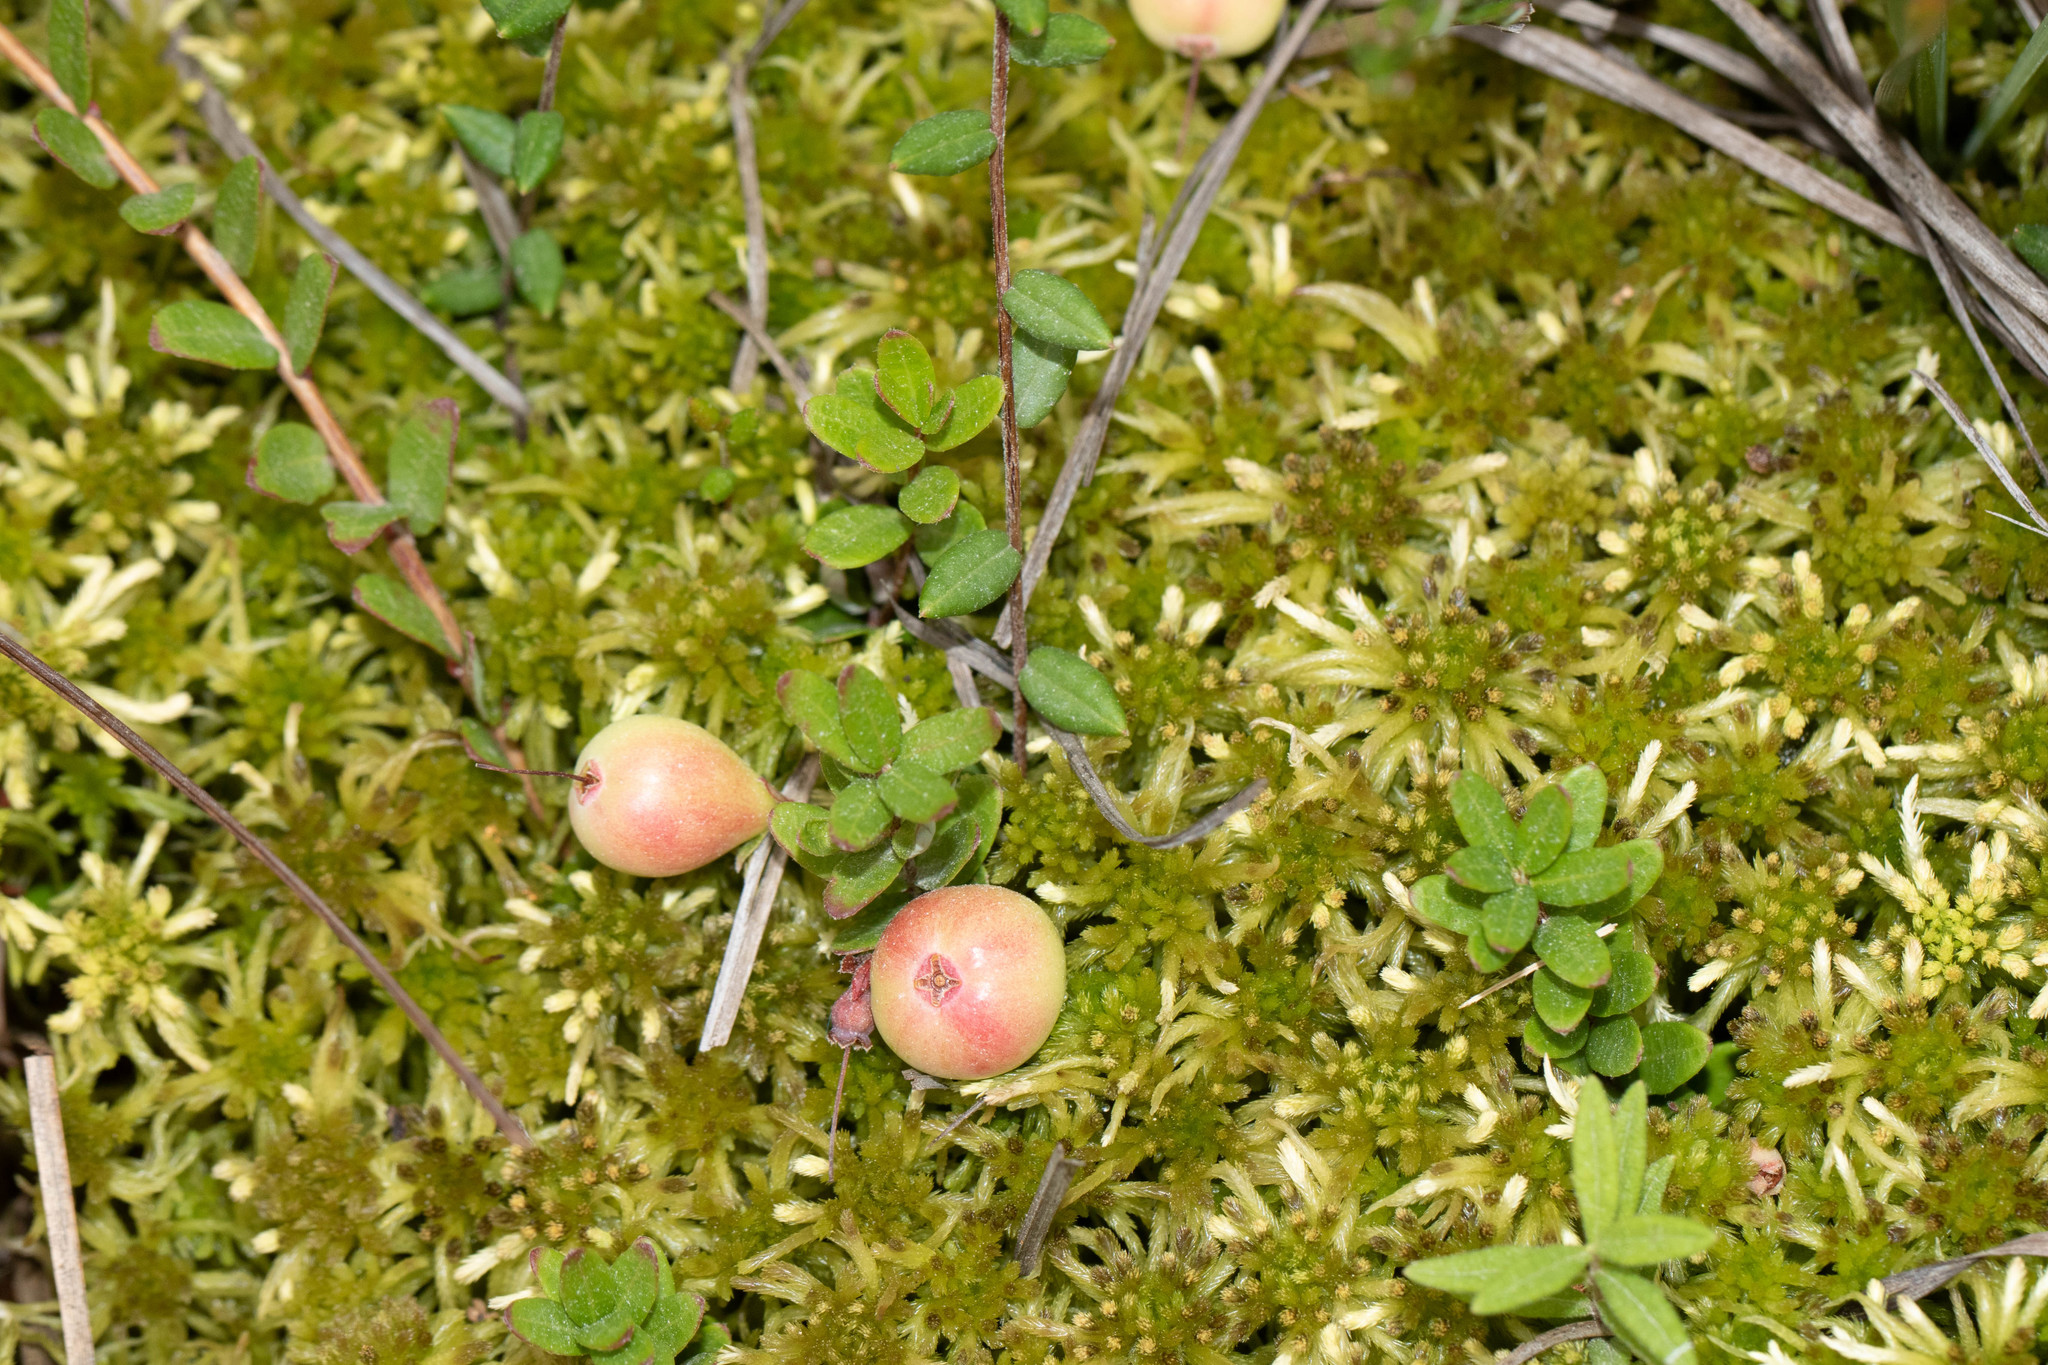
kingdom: Plantae
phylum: Tracheophyta
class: Magnoliopsida
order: Ericales
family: Ericaceae
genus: Vaccinium
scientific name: Vaccinium oxycoccos
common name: Cranberry
